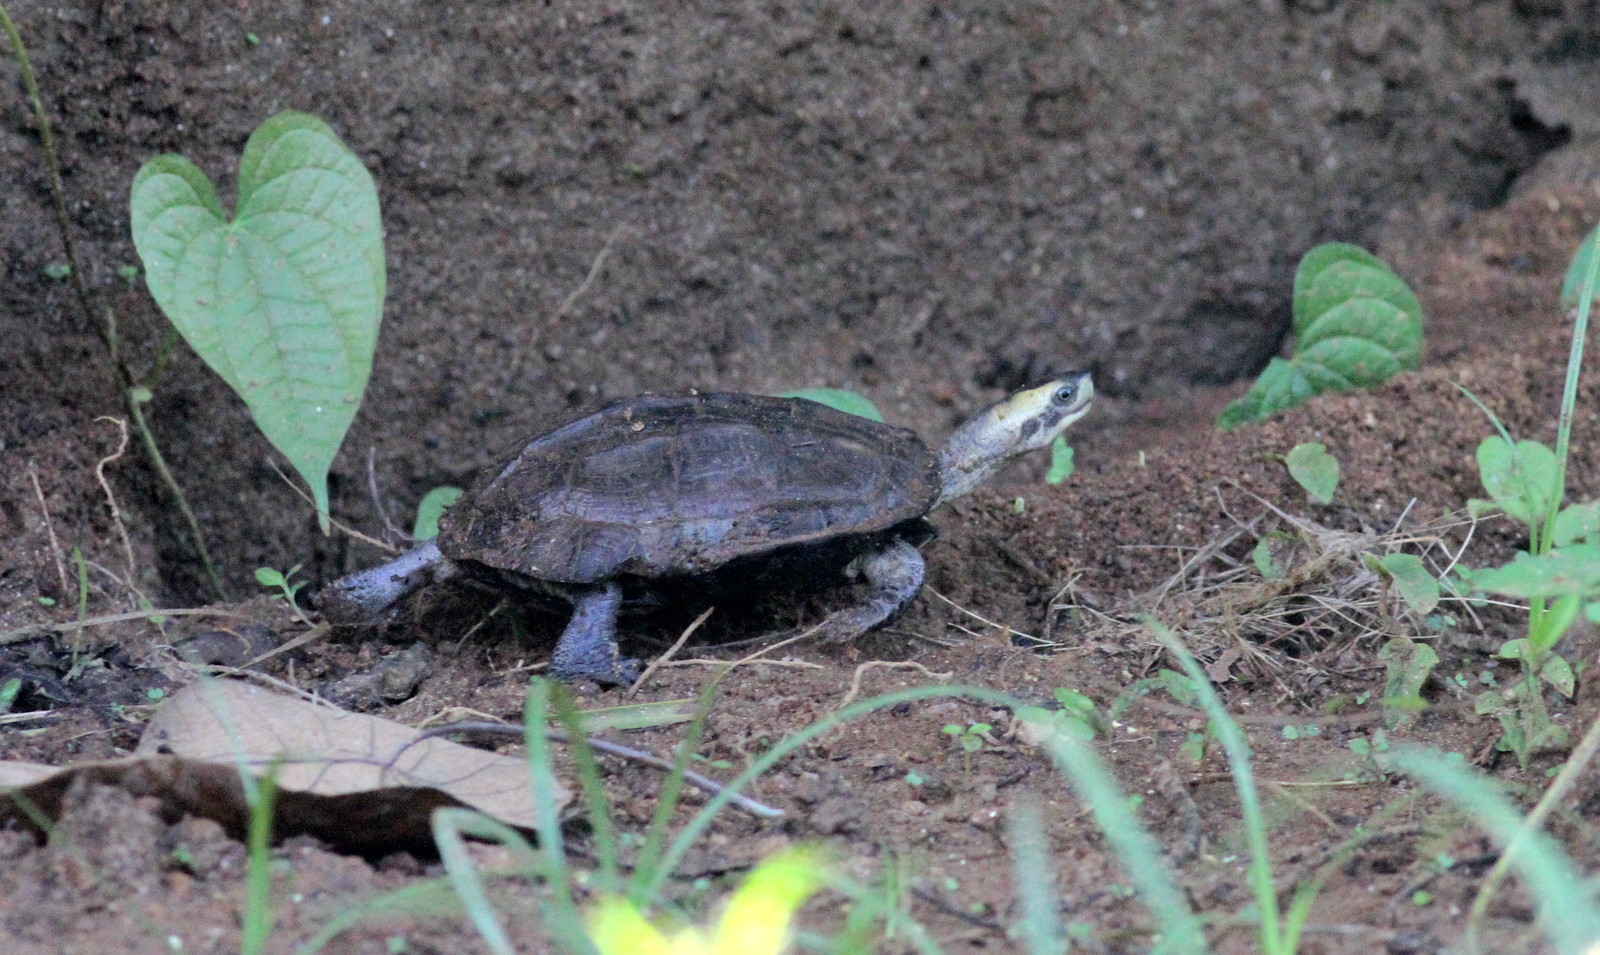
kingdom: Animalia
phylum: Chordata
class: Testudines
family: Geoemydidae
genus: Melanochelys
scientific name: Melanochelys trijuga
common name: Indian black turtle
